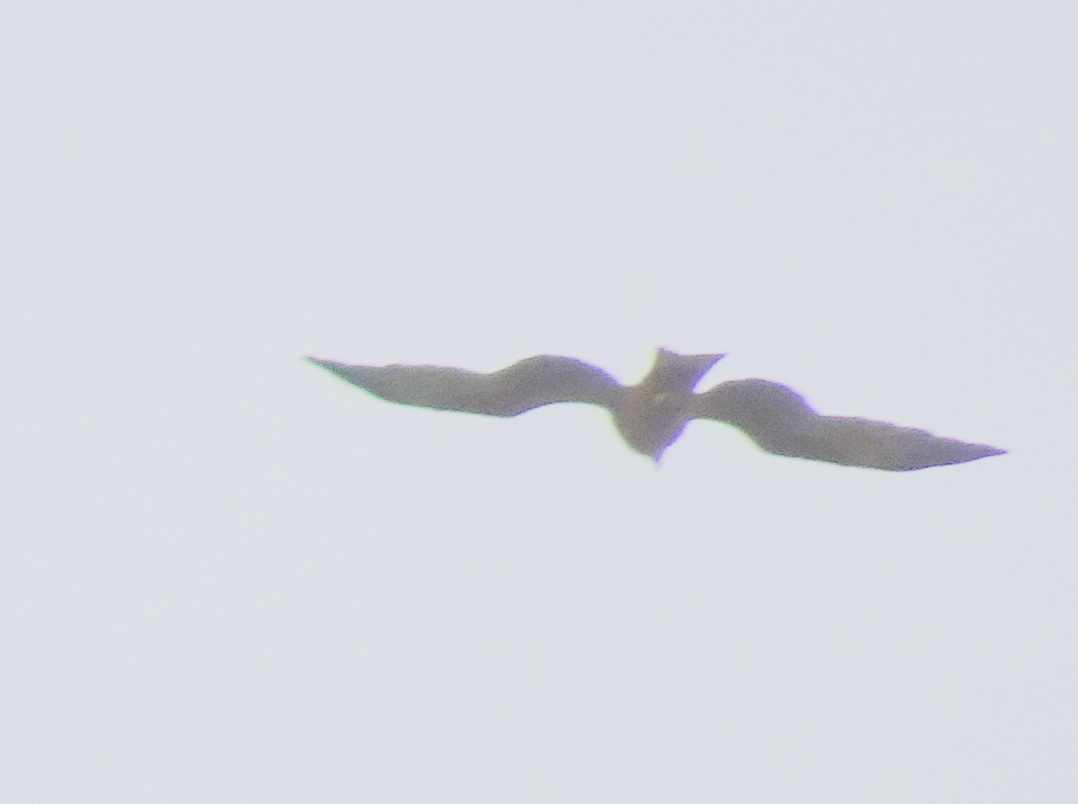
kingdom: Animalia
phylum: Chordata
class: Aves
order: Accipitriformes
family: Accipitridae
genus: Milvus
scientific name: Milvus migrans
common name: Black kite
